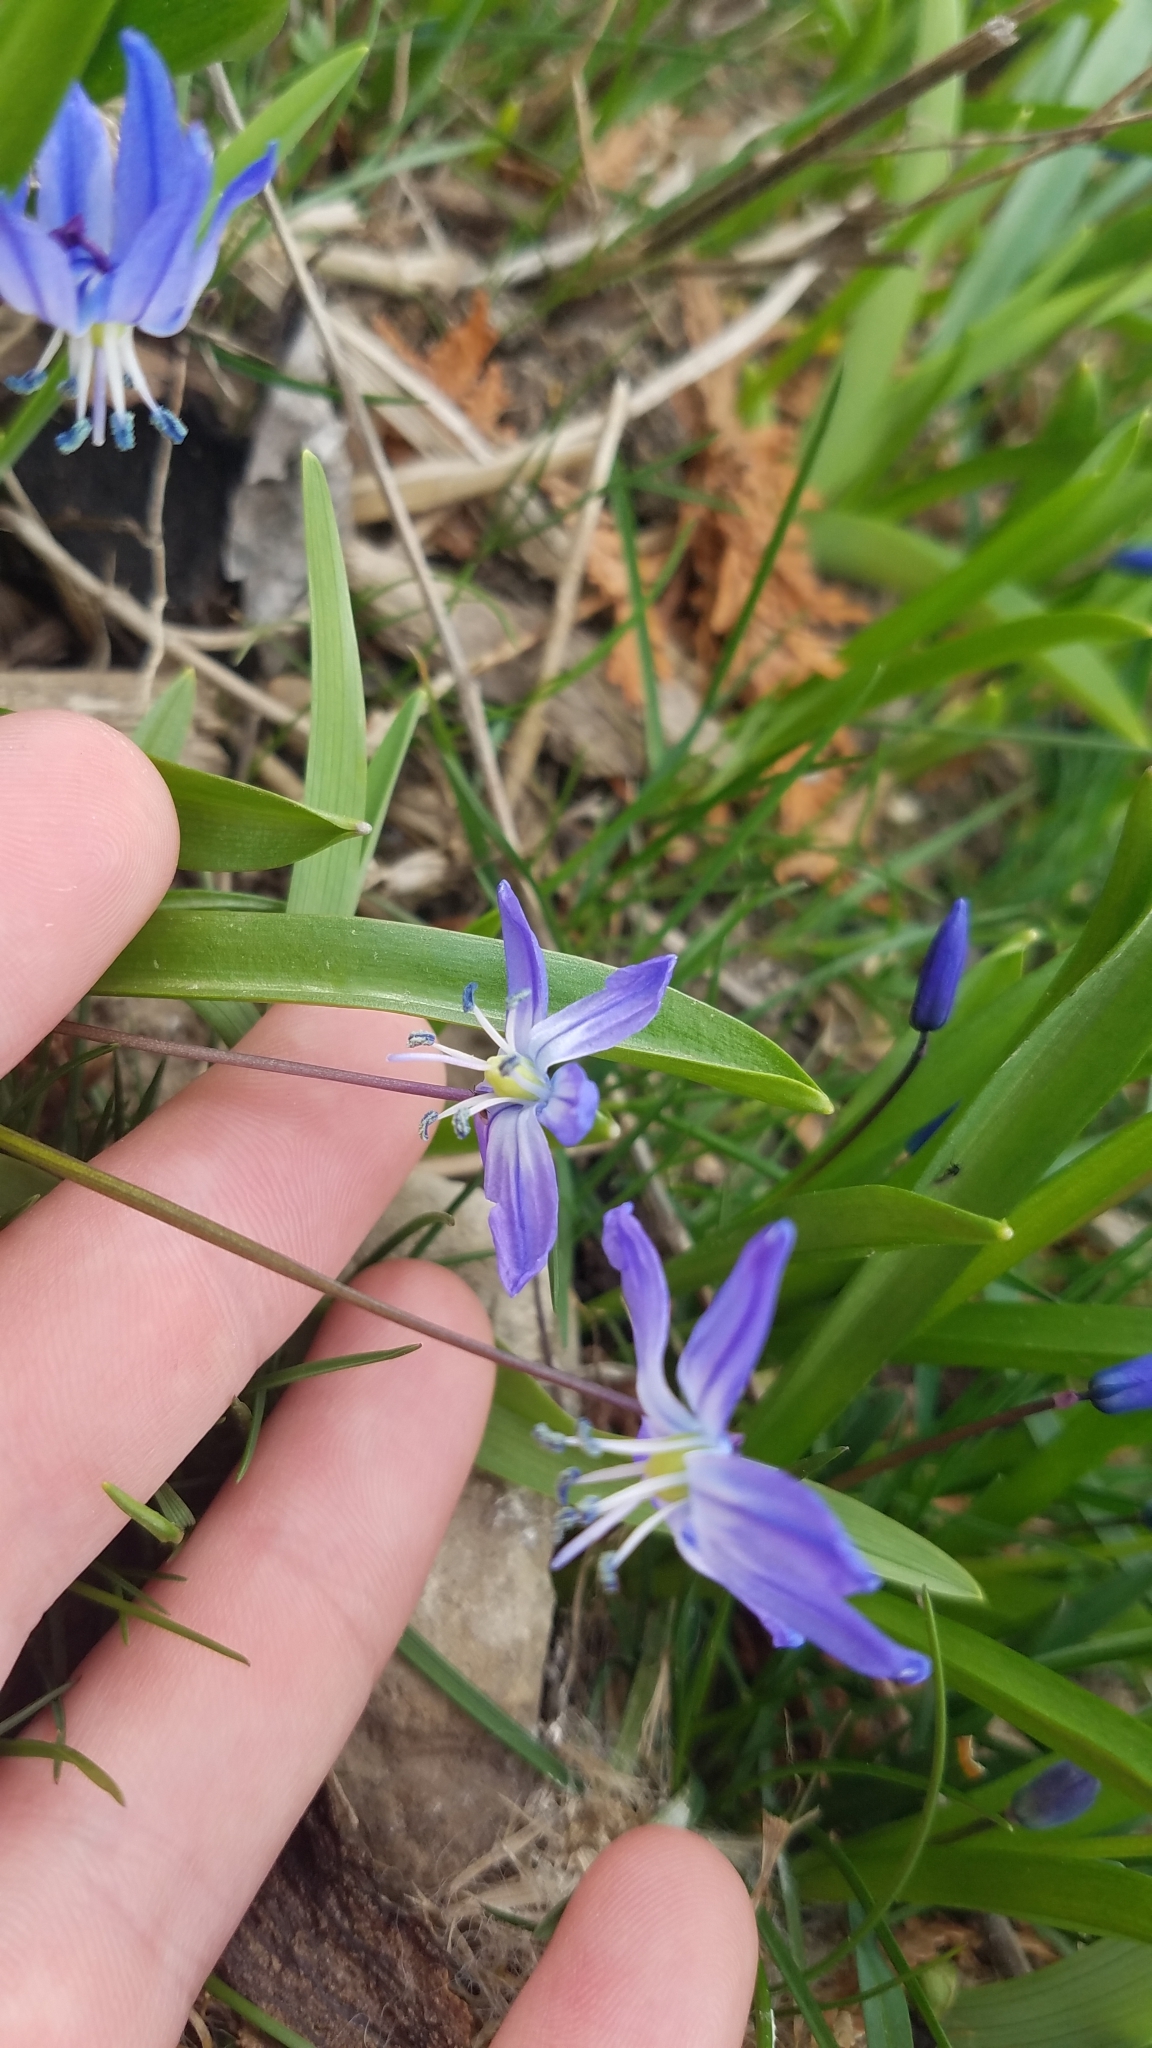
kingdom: Plantae
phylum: Tracheophyta
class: Liliopsida
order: Asparagales
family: Asparagaceae
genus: Scilla
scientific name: Scilla siberica
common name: Siberian squill
